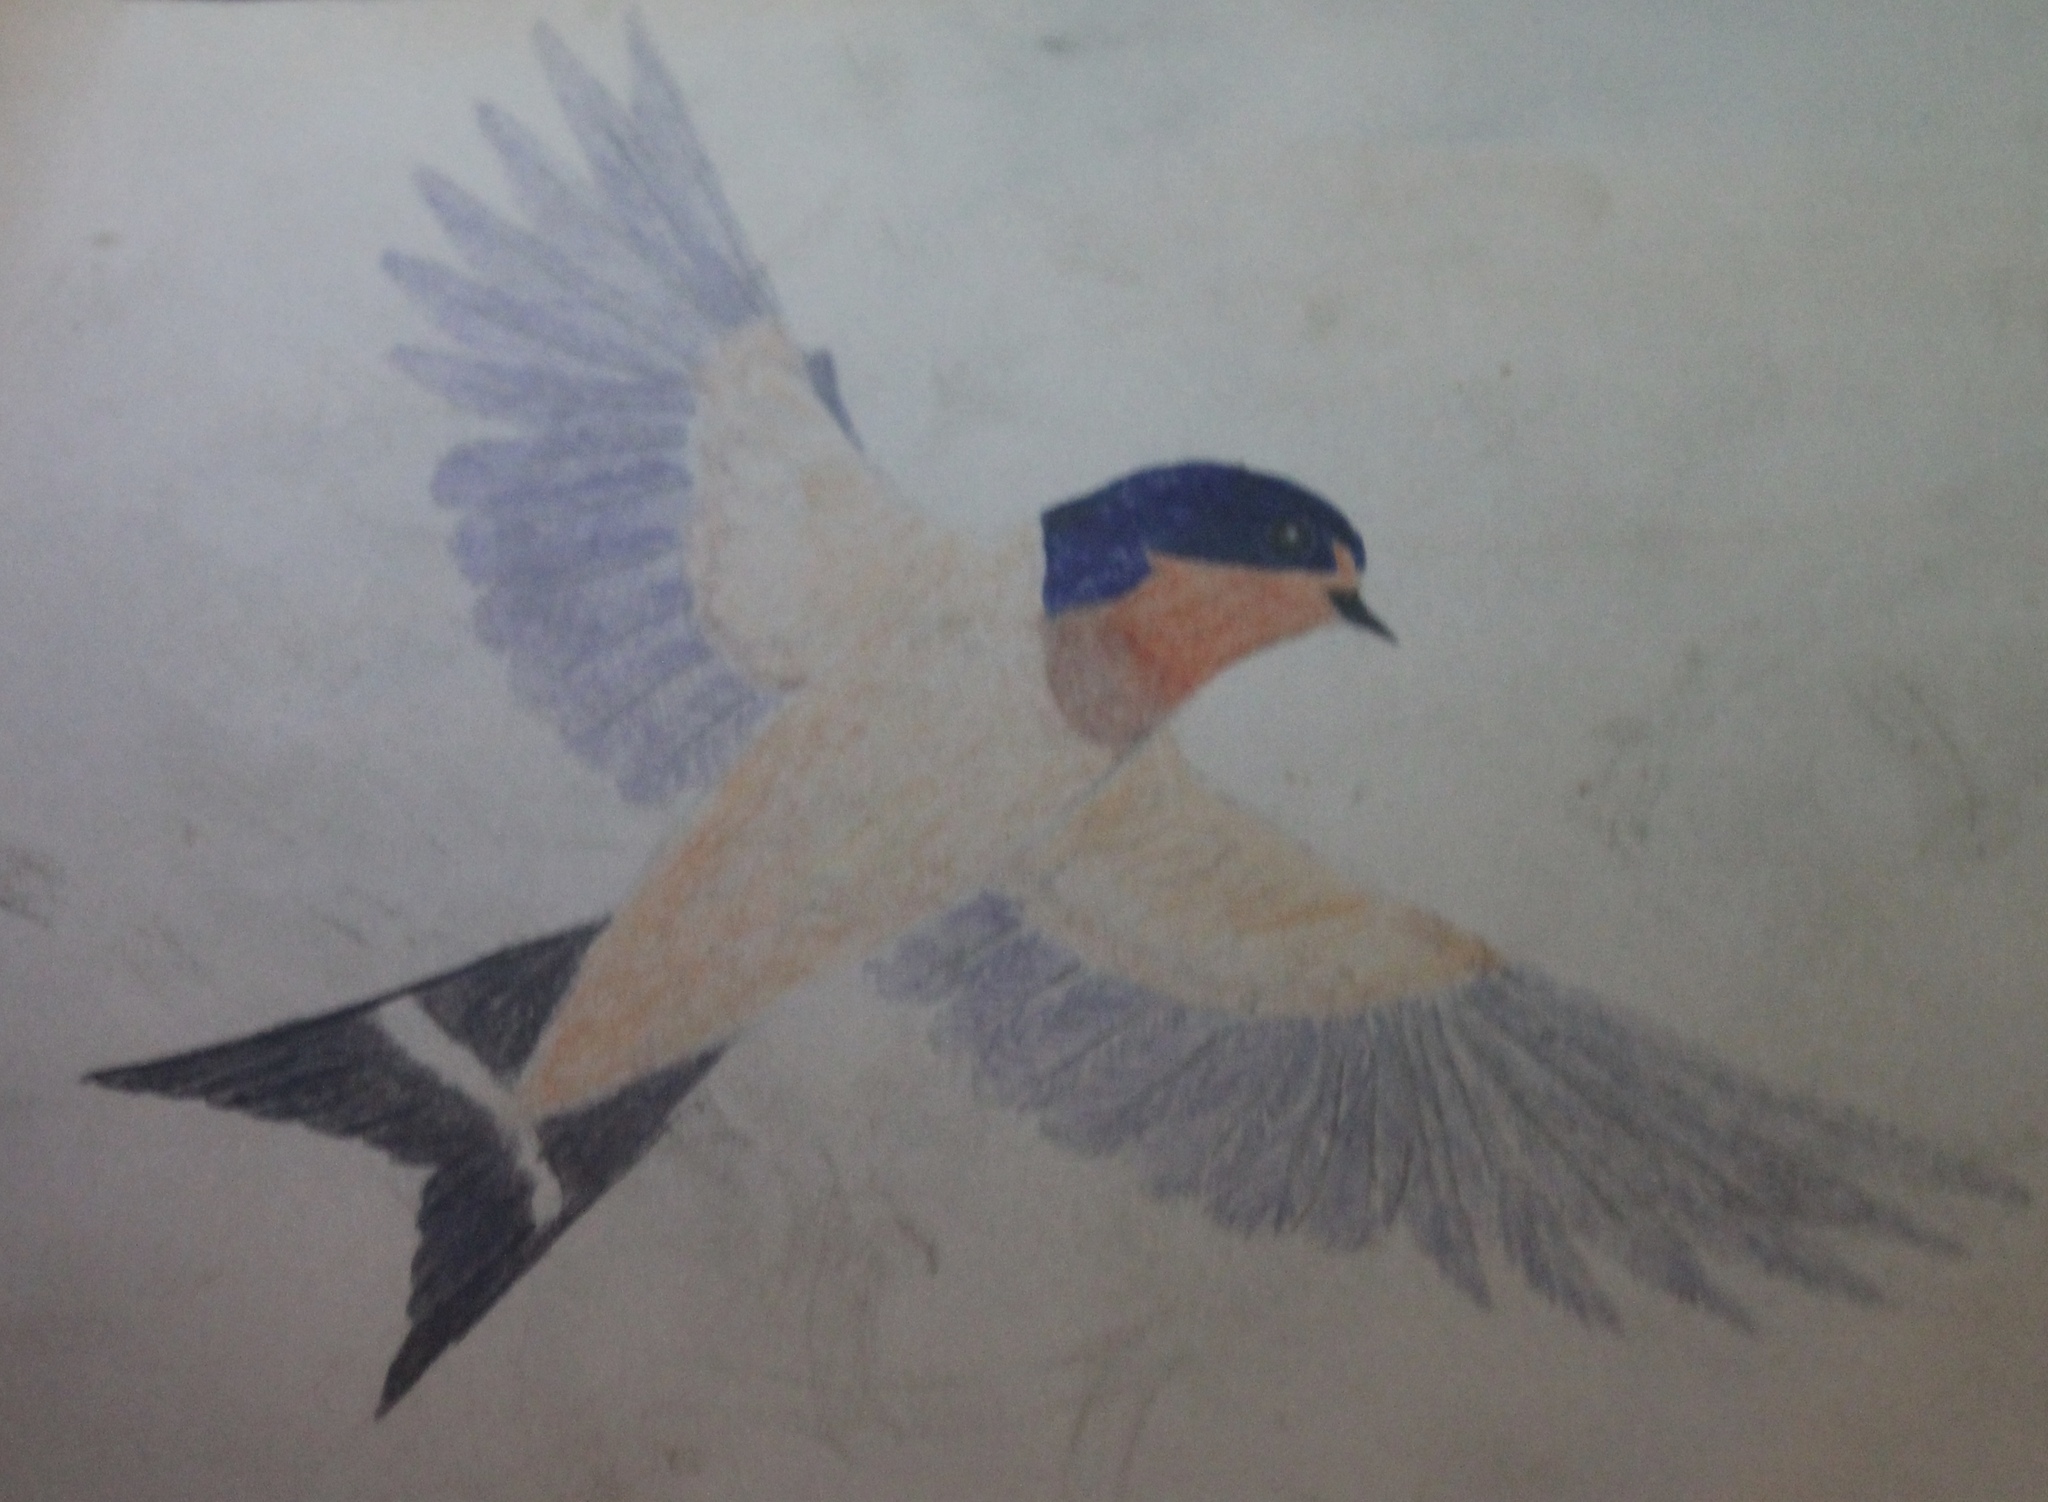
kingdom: Animalia
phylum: Chordata
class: Aves
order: Passeriformes
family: Hirundinidae
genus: Hirundo
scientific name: Hirundo rustica
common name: Barn swallow
